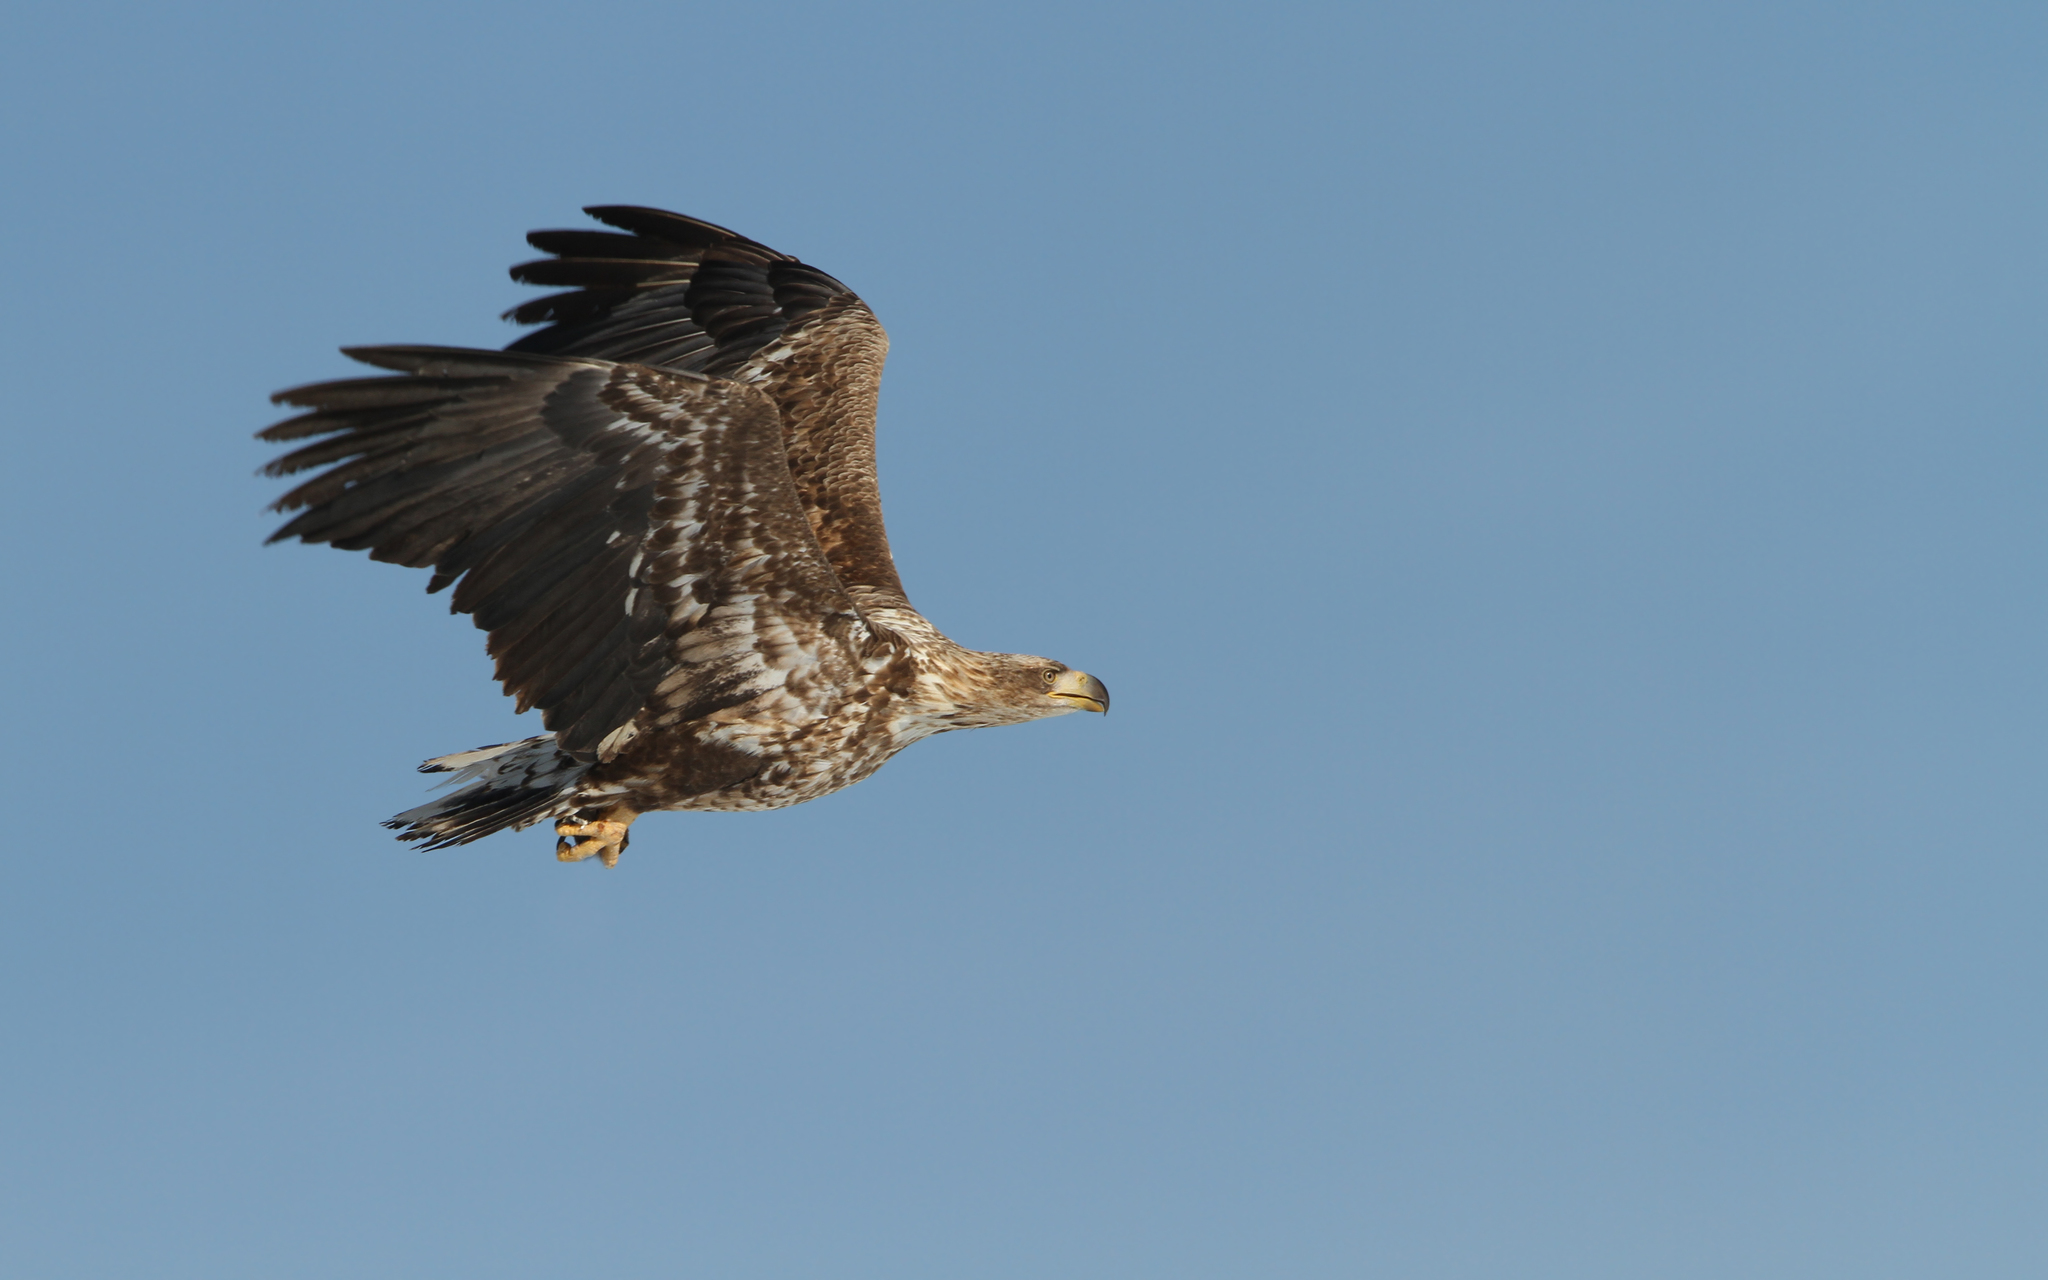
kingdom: Animalia
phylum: Chordata
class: Aves
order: Accipitriformes
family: Accipitridae
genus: Haliaeetus
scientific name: Haliaeetus albicilla
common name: White-tailed eagle
